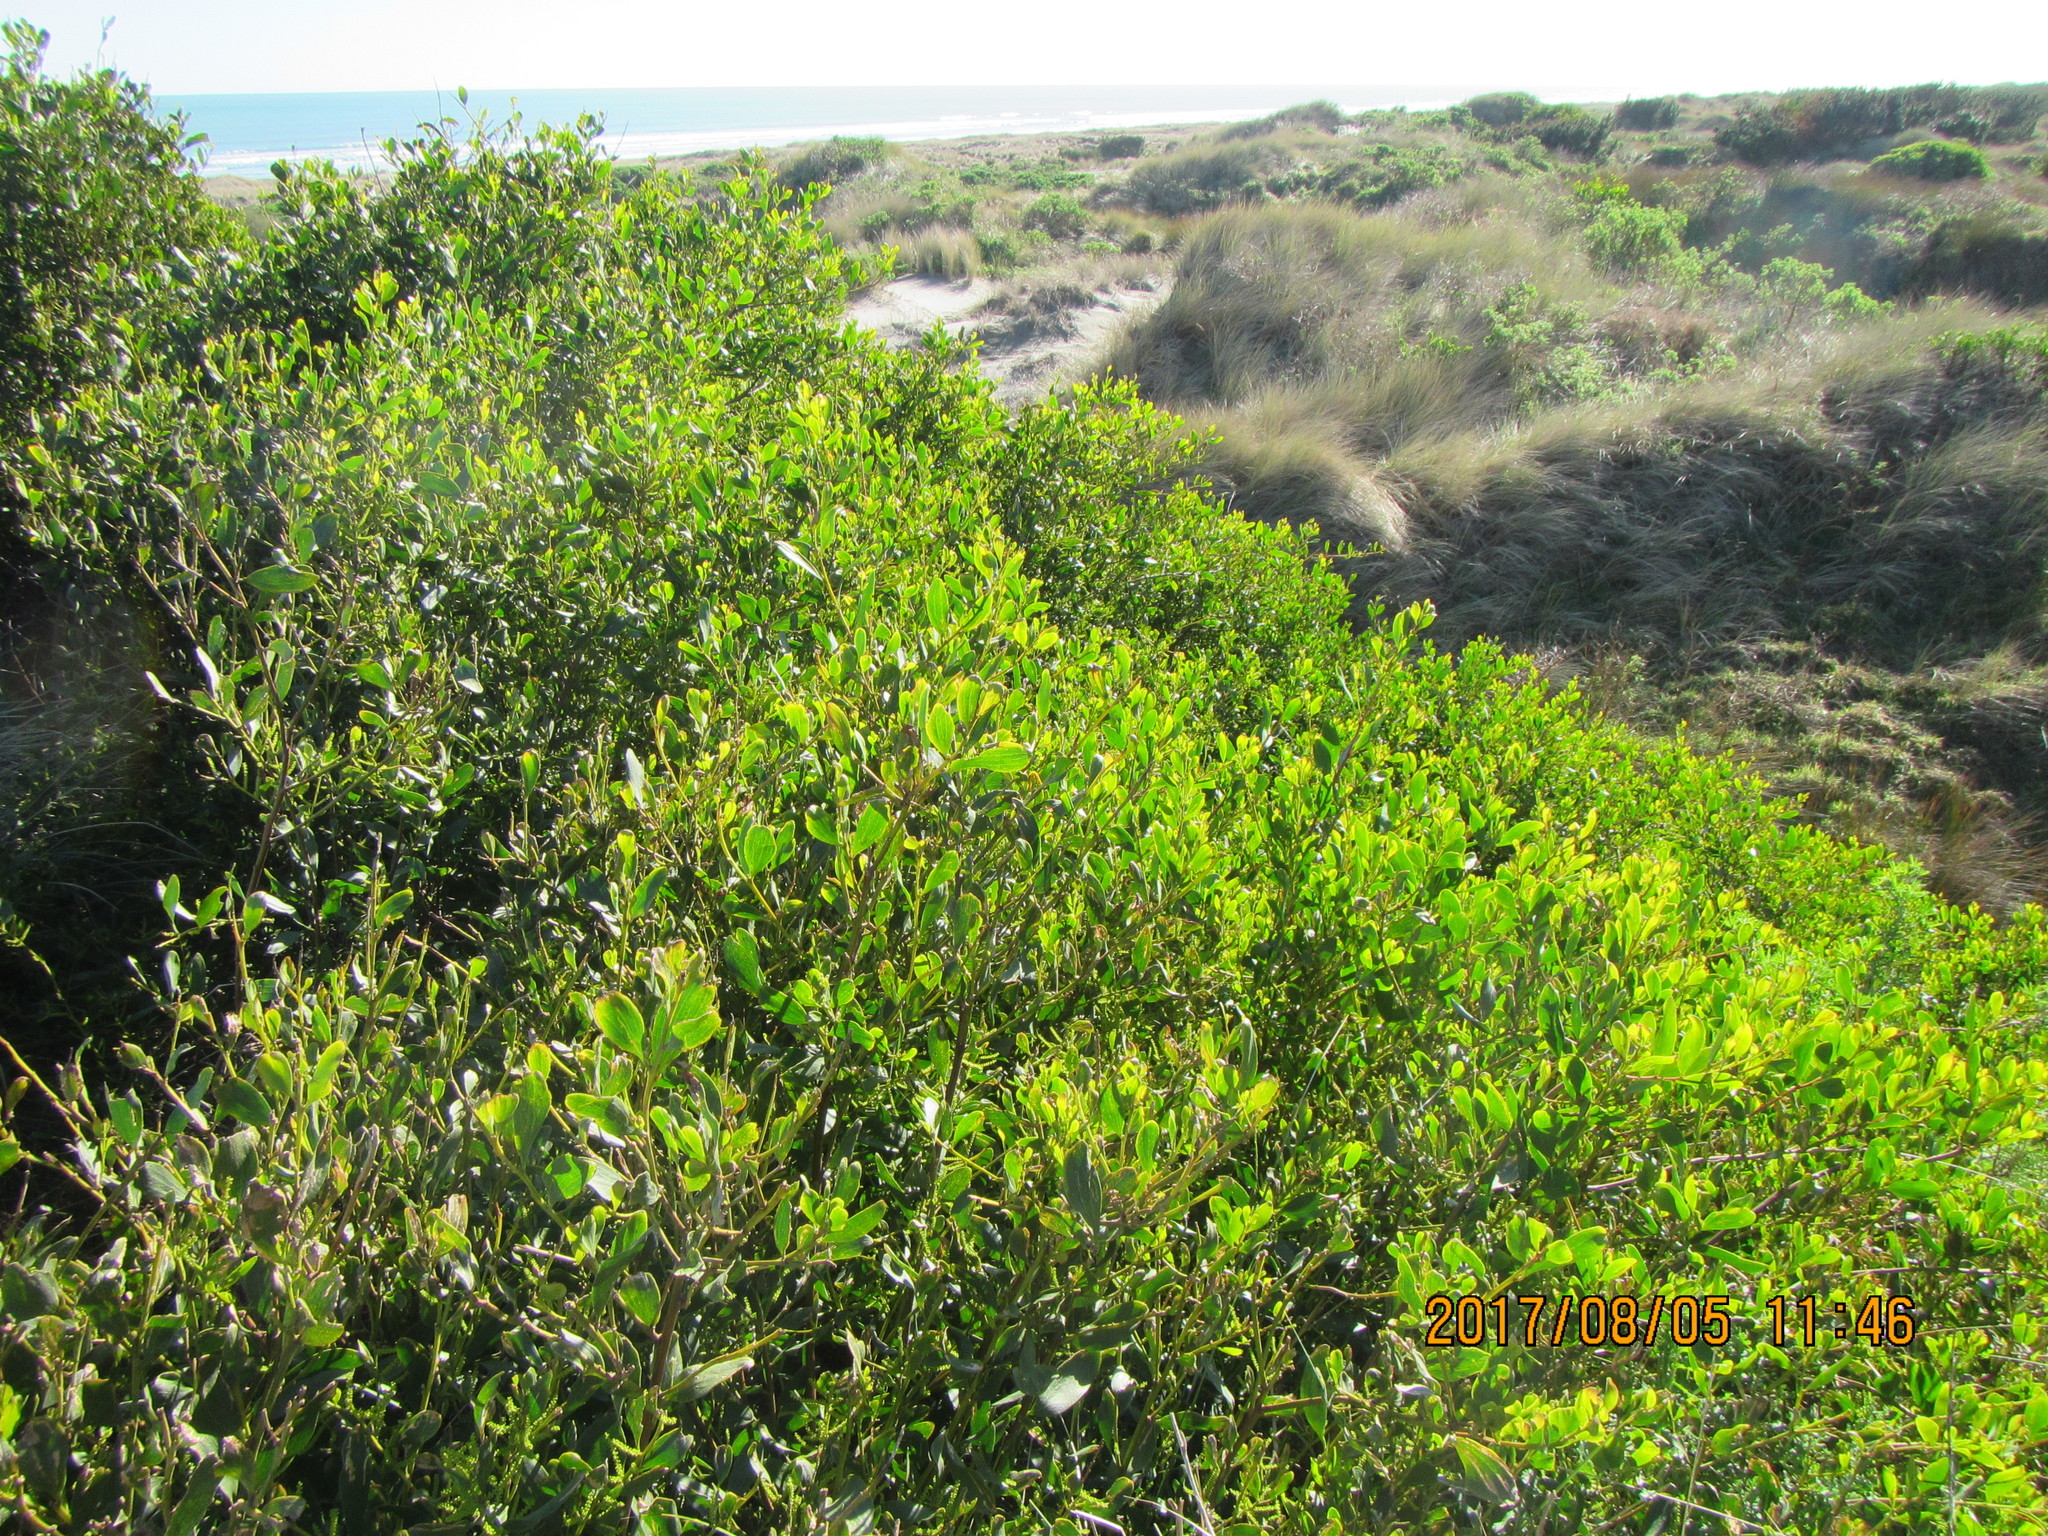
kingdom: Plantae
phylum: Tracheophyta
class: Magnoliopsida
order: Fabales
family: Fabaceae
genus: Acacia
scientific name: Acacia longifolia
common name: Sydney golden wattle
